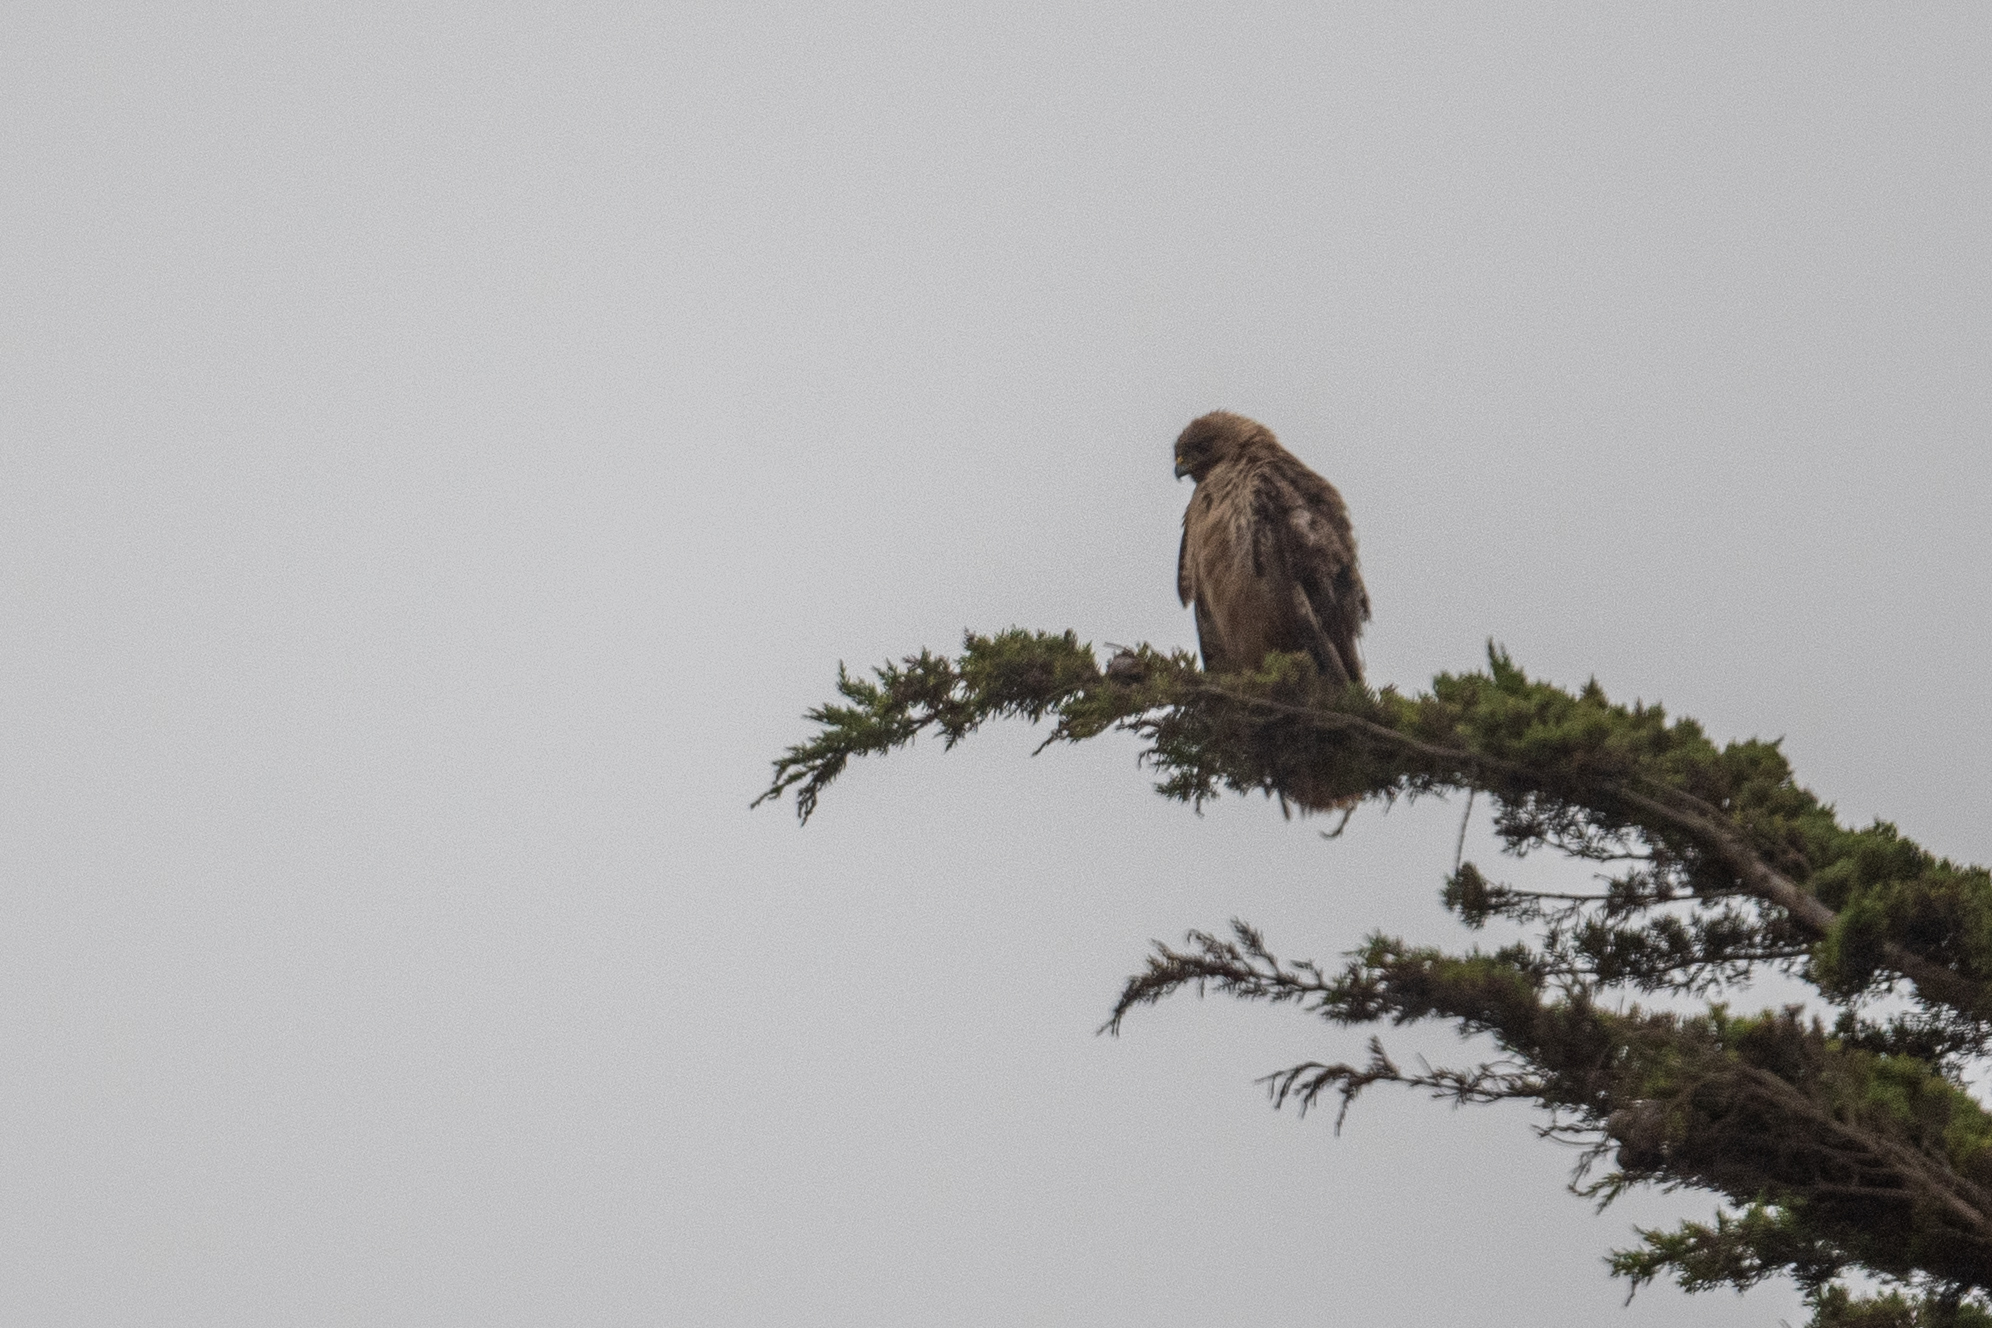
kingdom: Animalia
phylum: Chordata
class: Aves
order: Accipitriformes
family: Accipitridae
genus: Buteo
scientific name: Buteo jamaicensis
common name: Red-tailed hawk
